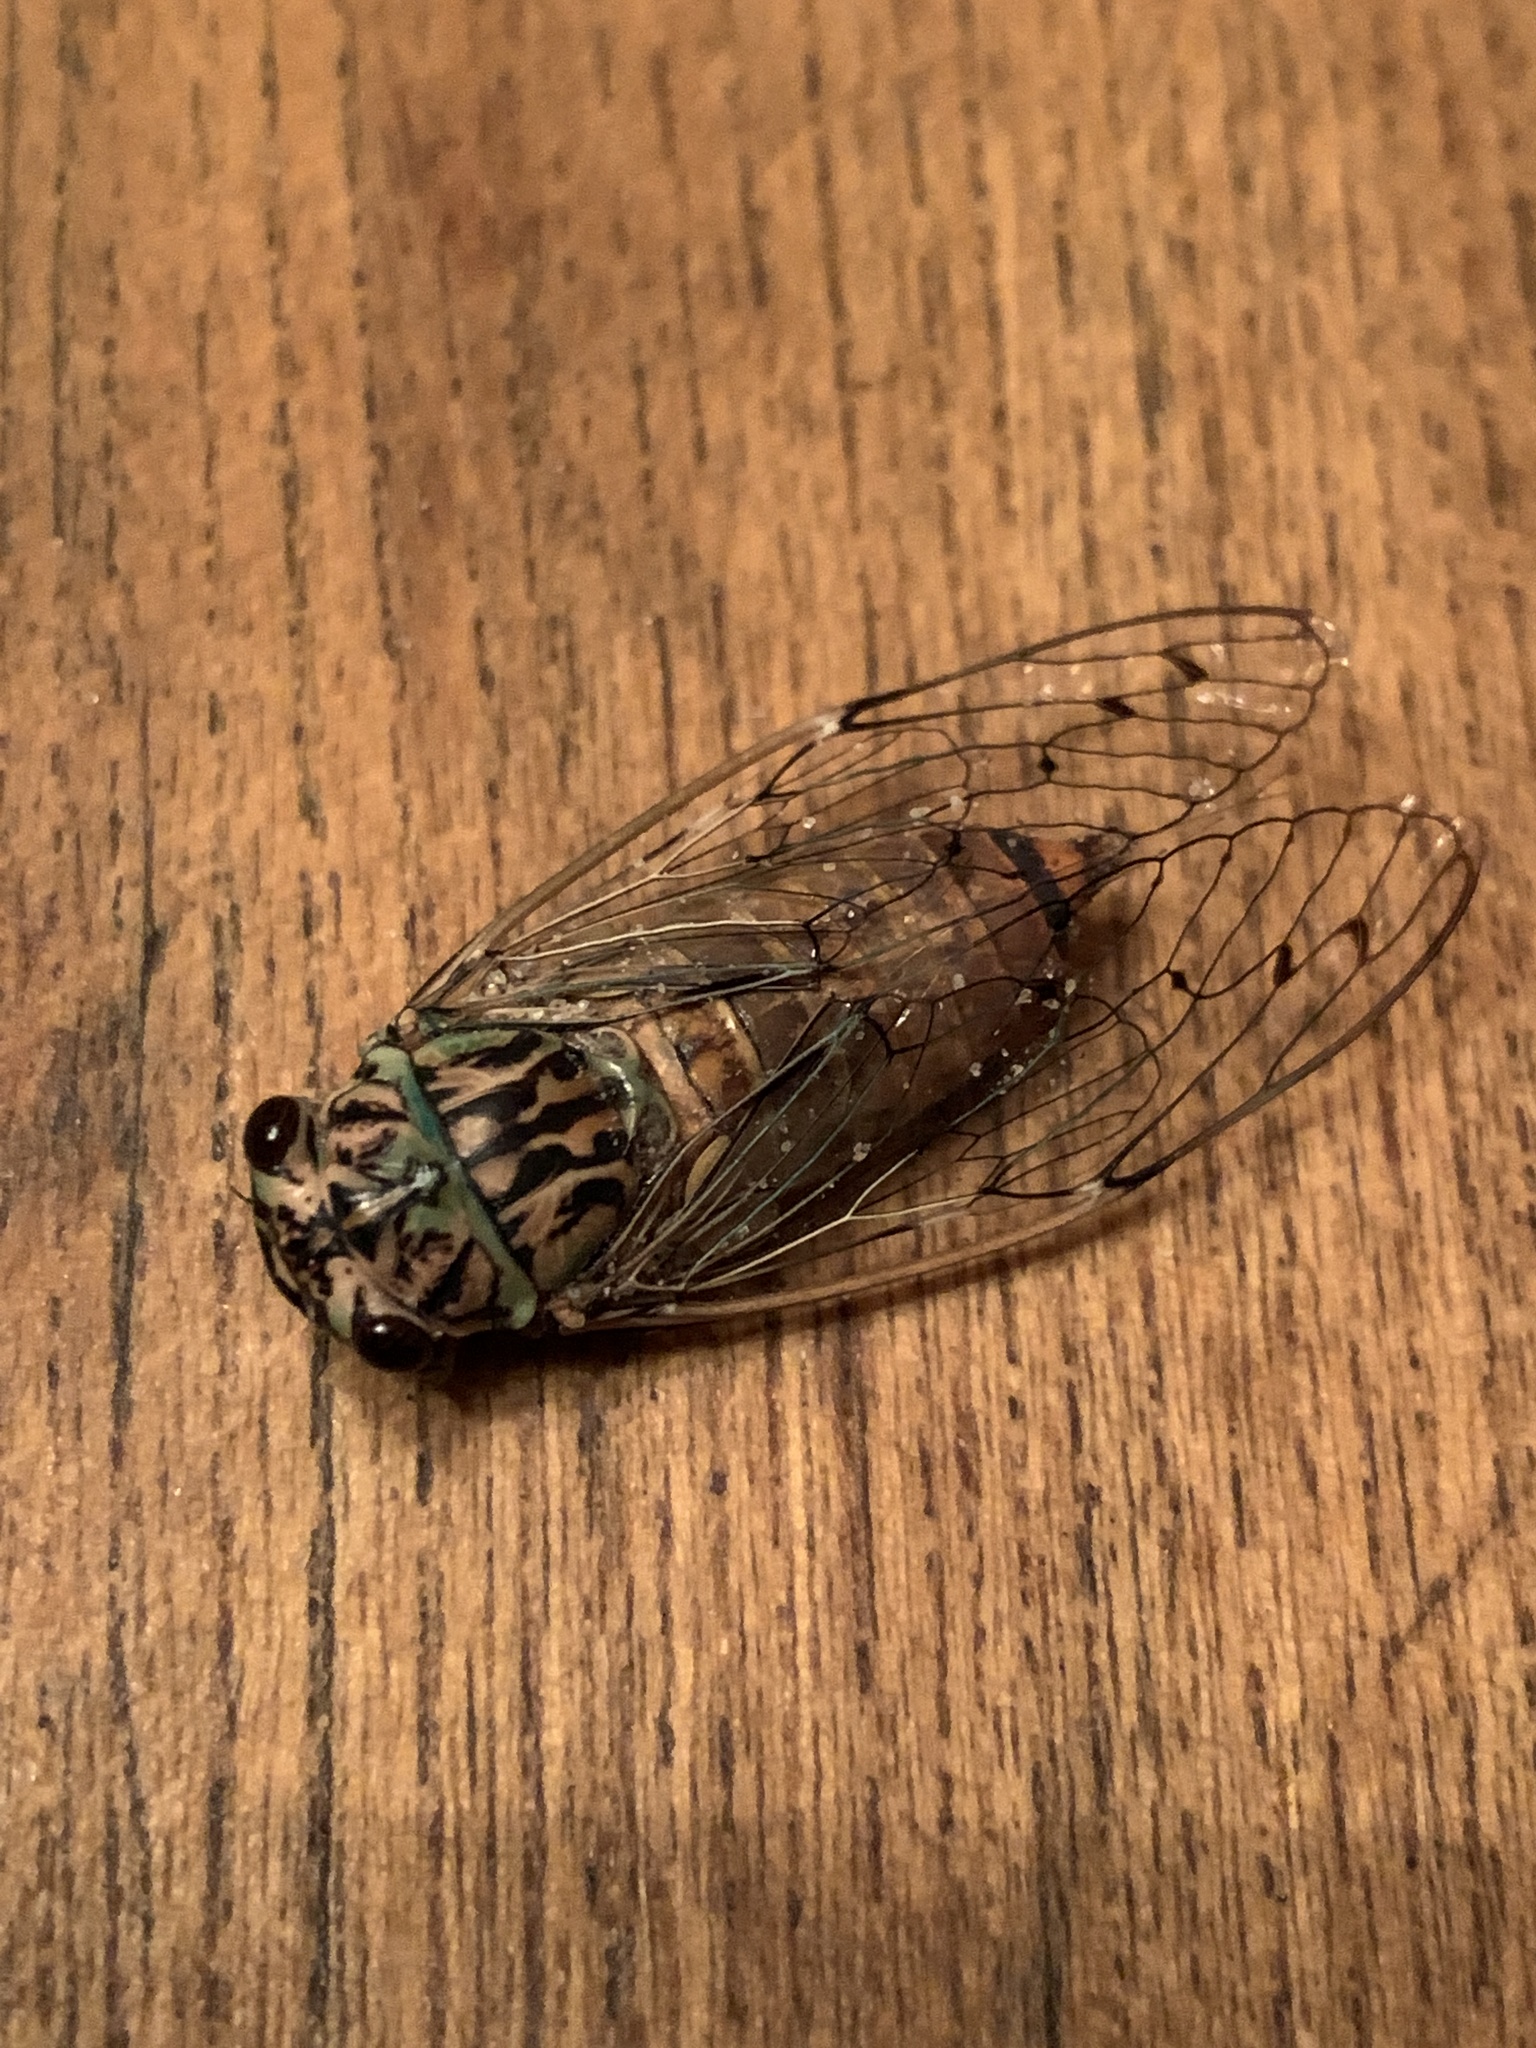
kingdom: Animalia
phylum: Arthropoda
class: Insecta
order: Hemiptera
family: Cicadidae
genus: Neocicada
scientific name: Neocicada hieroglyphica
